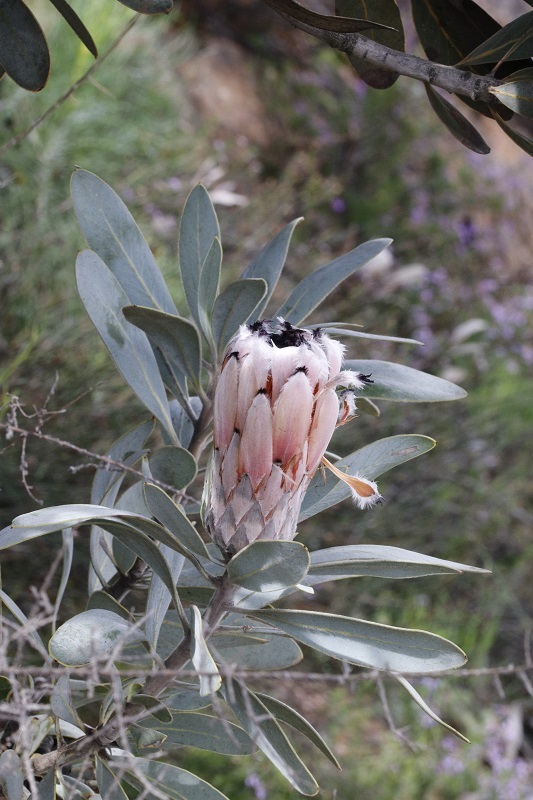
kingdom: Plantae
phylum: Tracheophyta
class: Magnoliopsida
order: Proteales
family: Proteaceae
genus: Protea
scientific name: Protea laurifolia
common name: Grey-leaf sugarbsh
